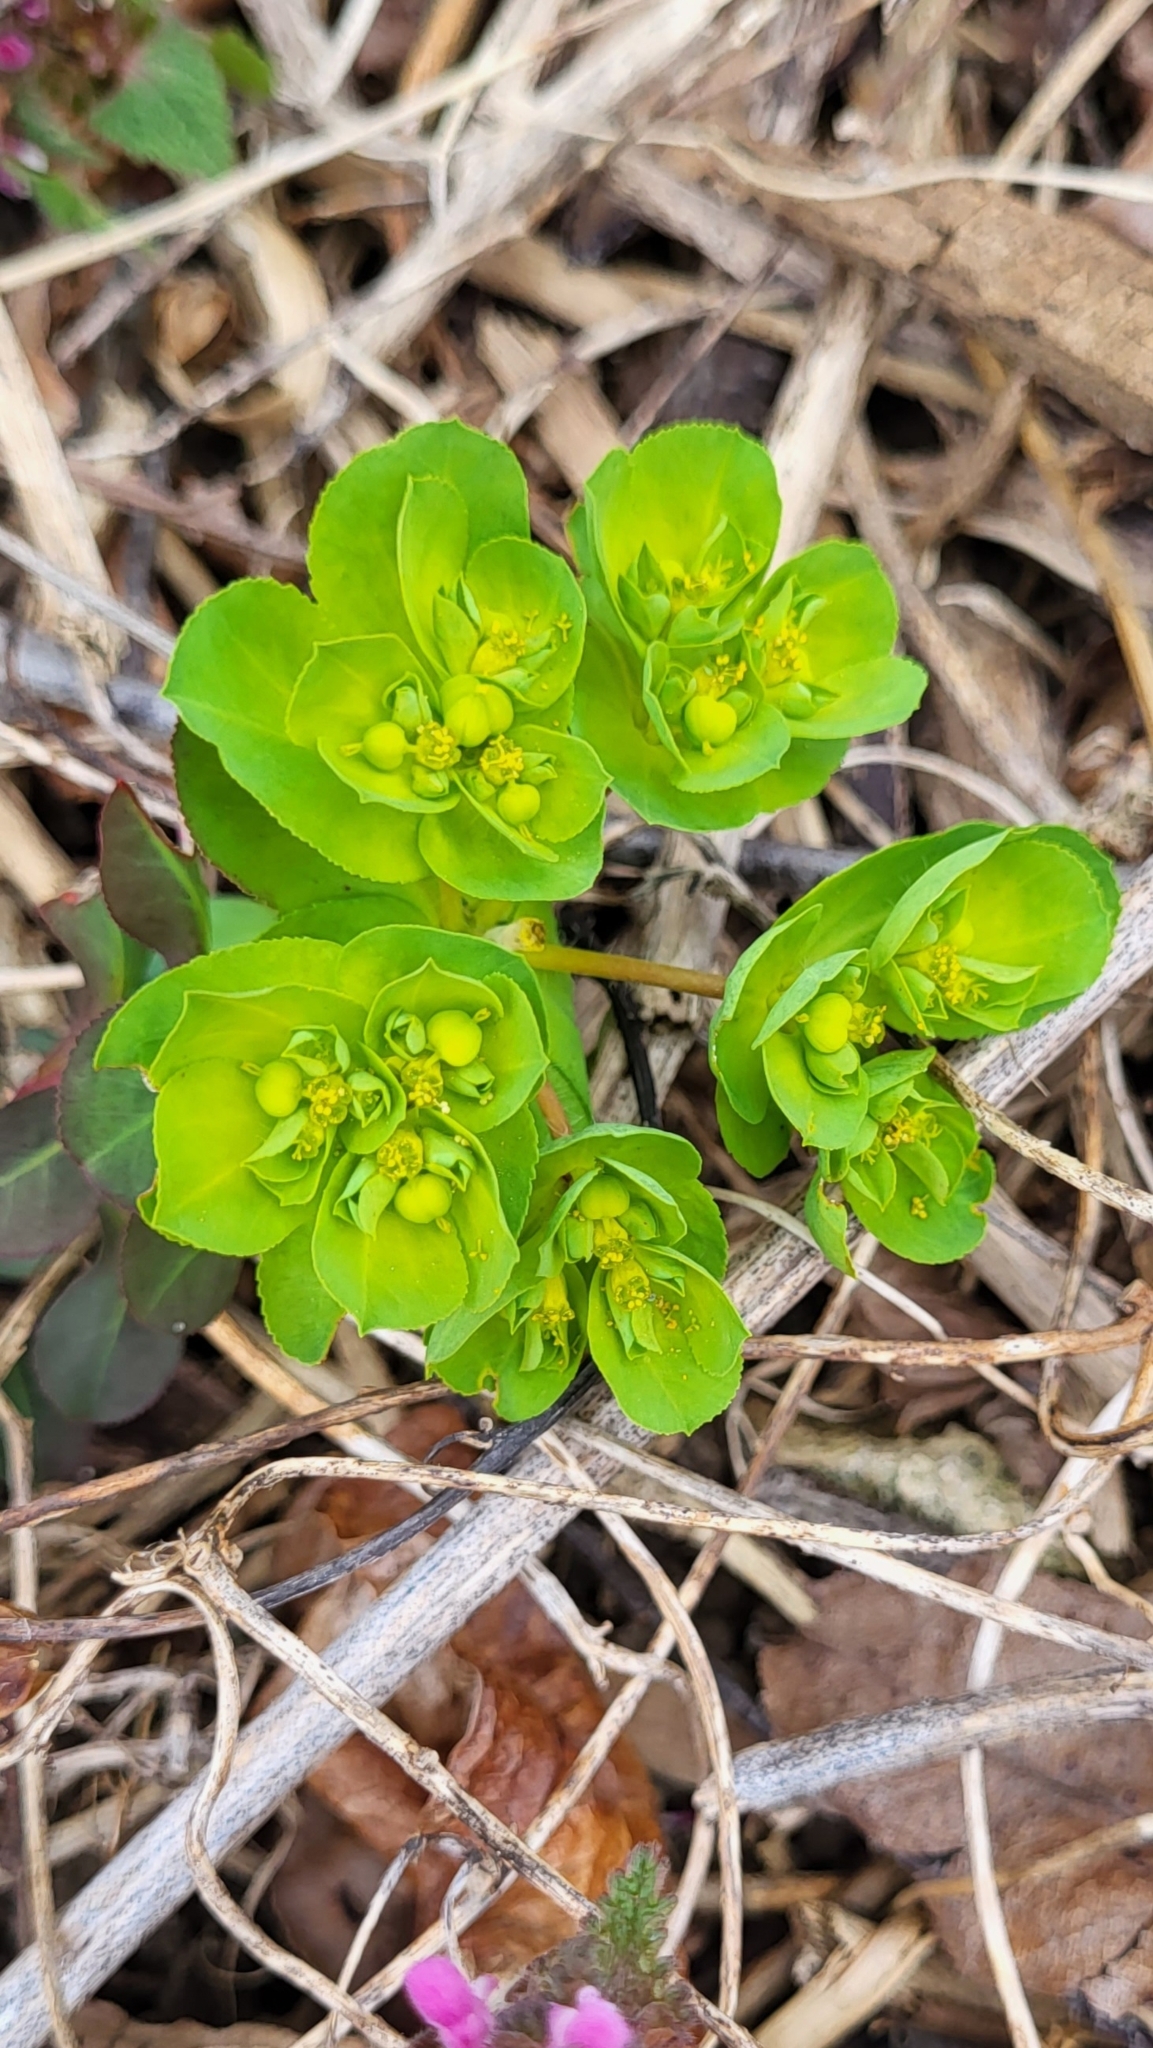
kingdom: Plantae
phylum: Tracheophyta
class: Magnoliopsida
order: Malpighiales
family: Euphorbiaceae
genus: Euphorbia
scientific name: Euphorbia helioscopia
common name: Sun spurge
